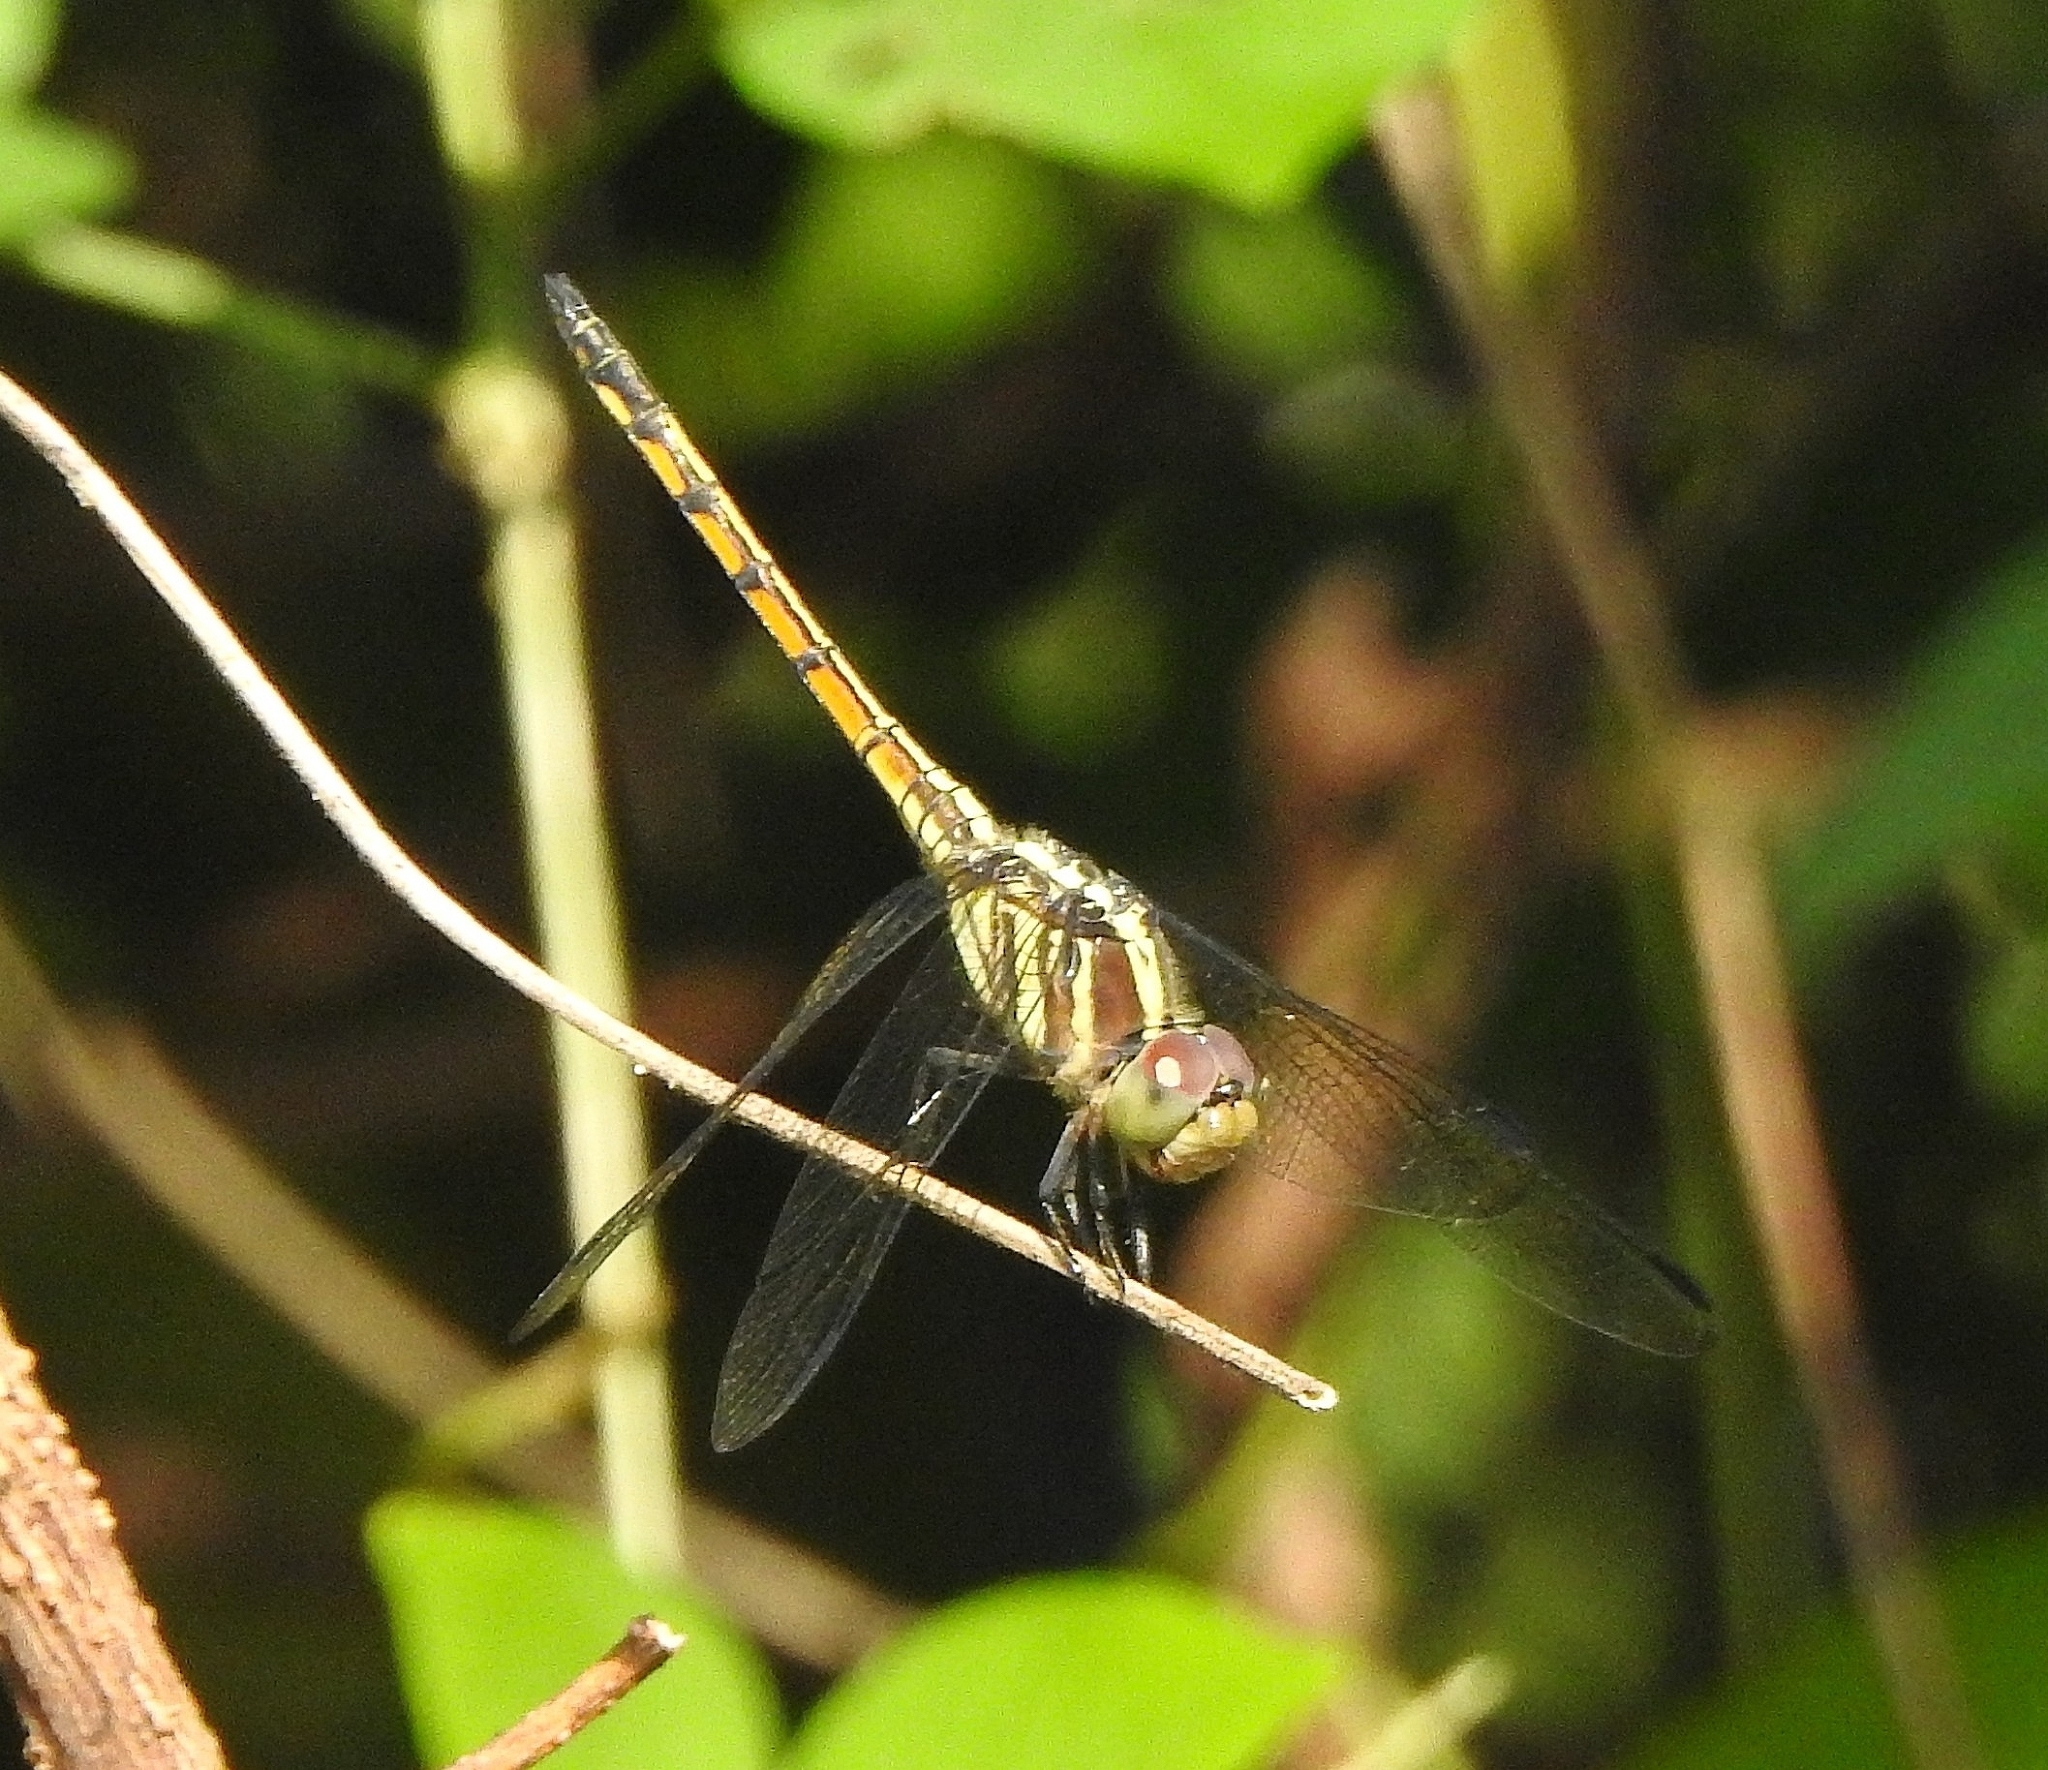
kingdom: Animalia
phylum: Arthropoda
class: Insecta
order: Odonata
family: Libellulidae
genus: Potamarcha
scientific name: Potamarcha congener
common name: Blue chaser
